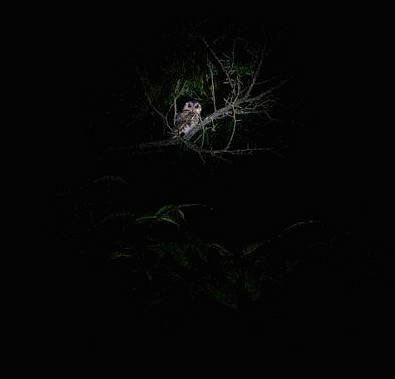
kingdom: Animalia
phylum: Chordata
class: Aves
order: Strigiformes
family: Strigidae
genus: Otus
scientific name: Otus bakkamoena
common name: Indian scops owl
